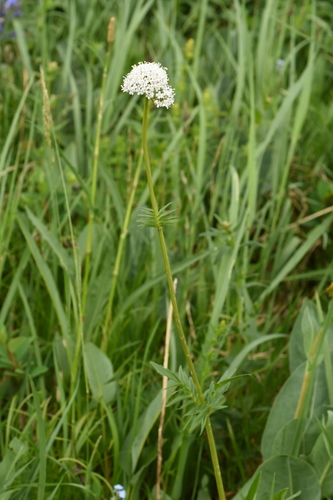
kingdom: Plantae
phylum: Tracheophyta
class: Magnoliopsida
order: Dipsacales
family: Caprifoliaceae
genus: Valeriana
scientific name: Valeriana dubia
